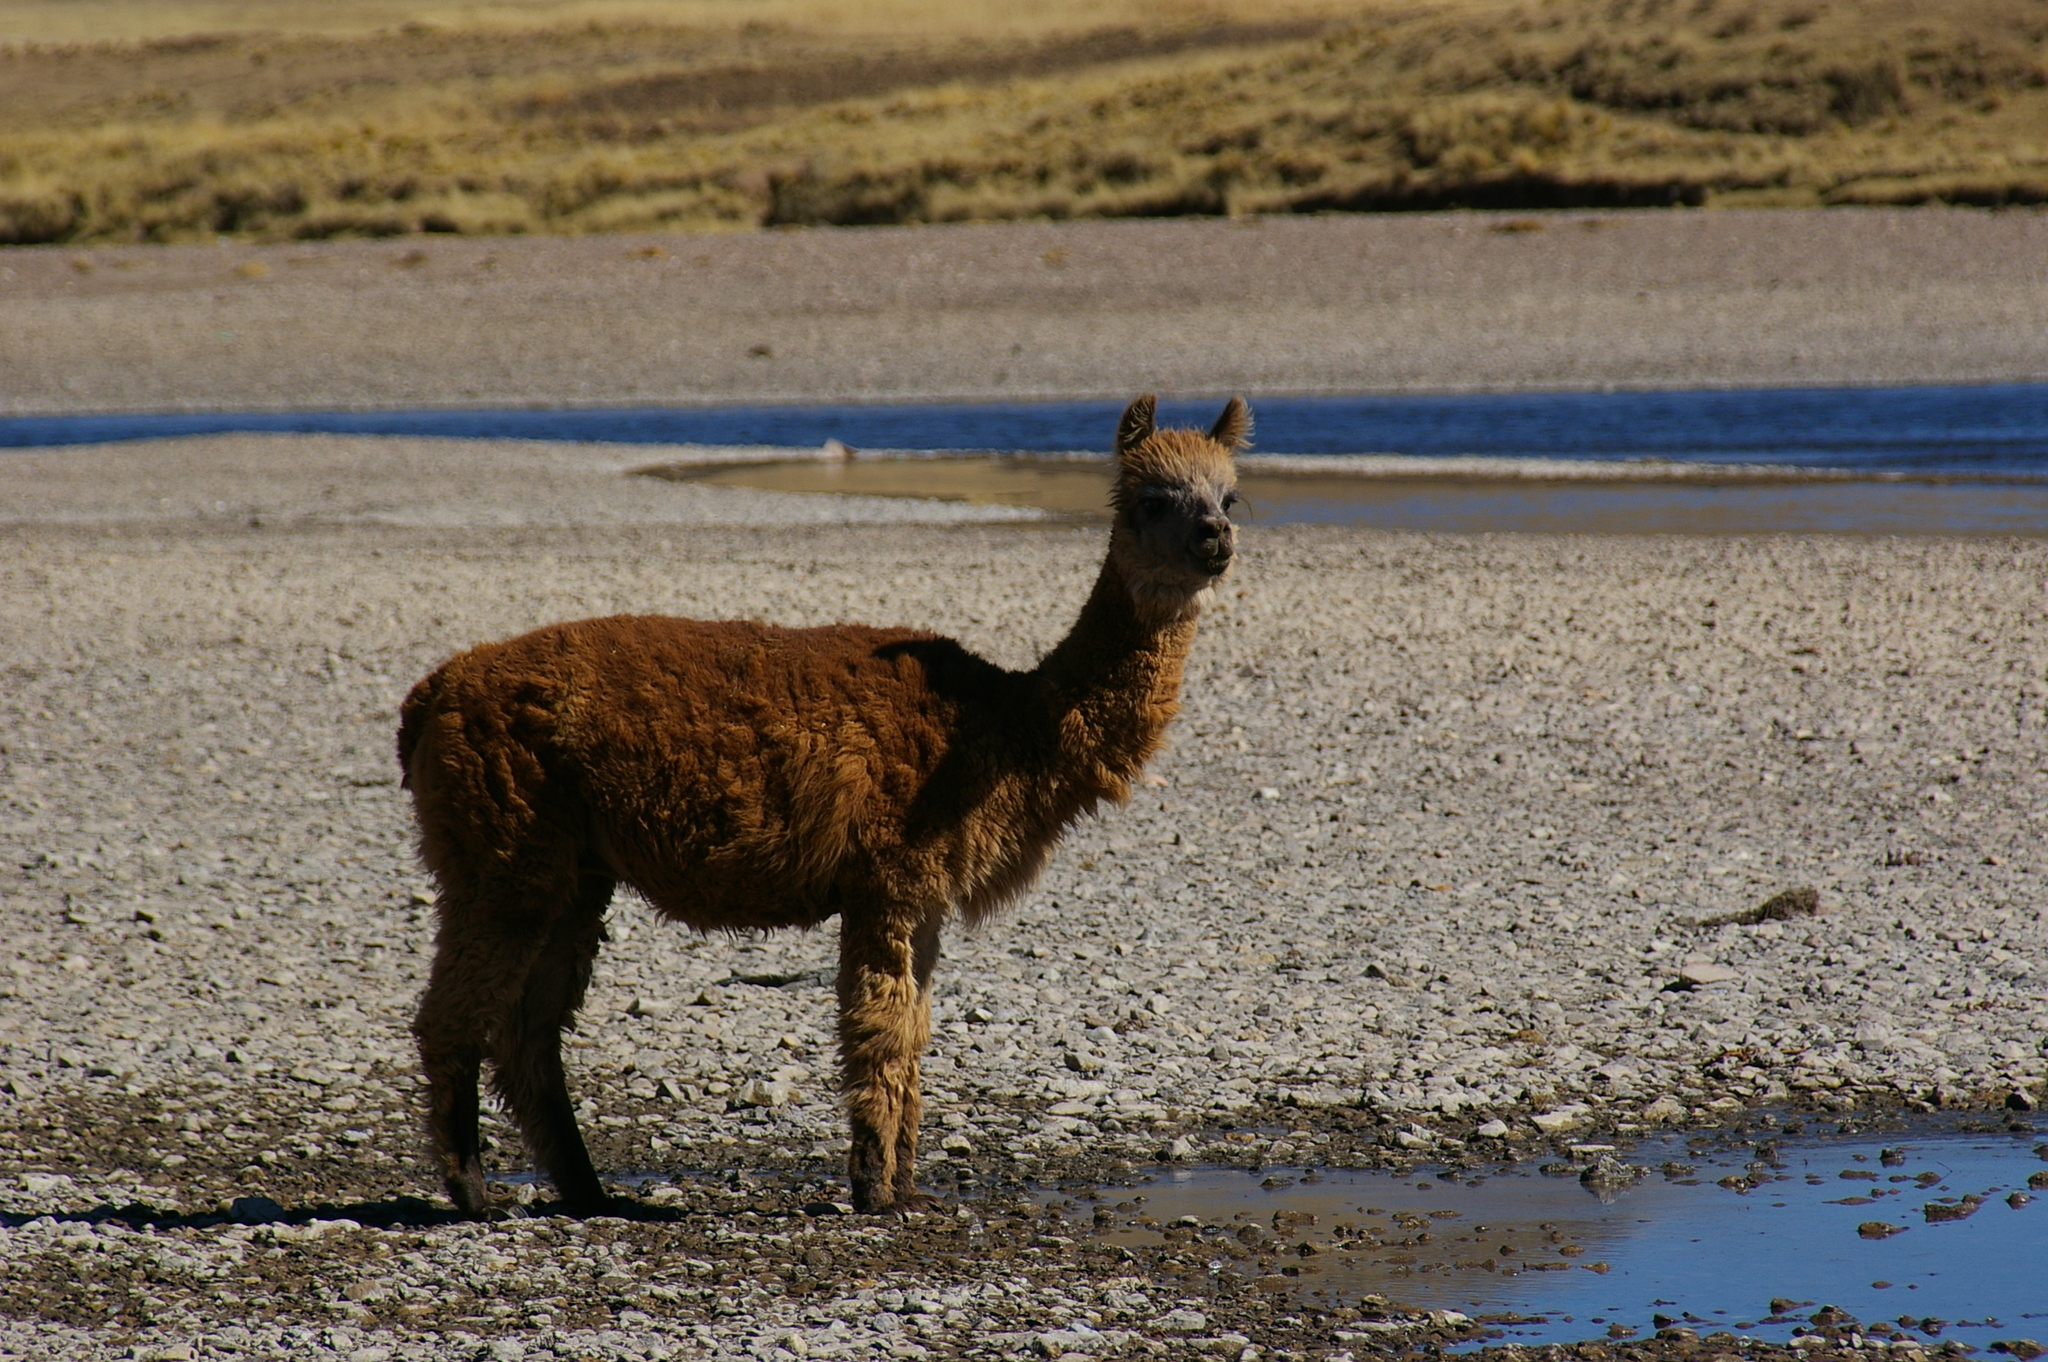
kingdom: Animalia
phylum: Chordata
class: Mammalia
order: Artiodactyla
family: Camelidae
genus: Vicugna
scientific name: Vicugna pacos
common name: Alpaca
